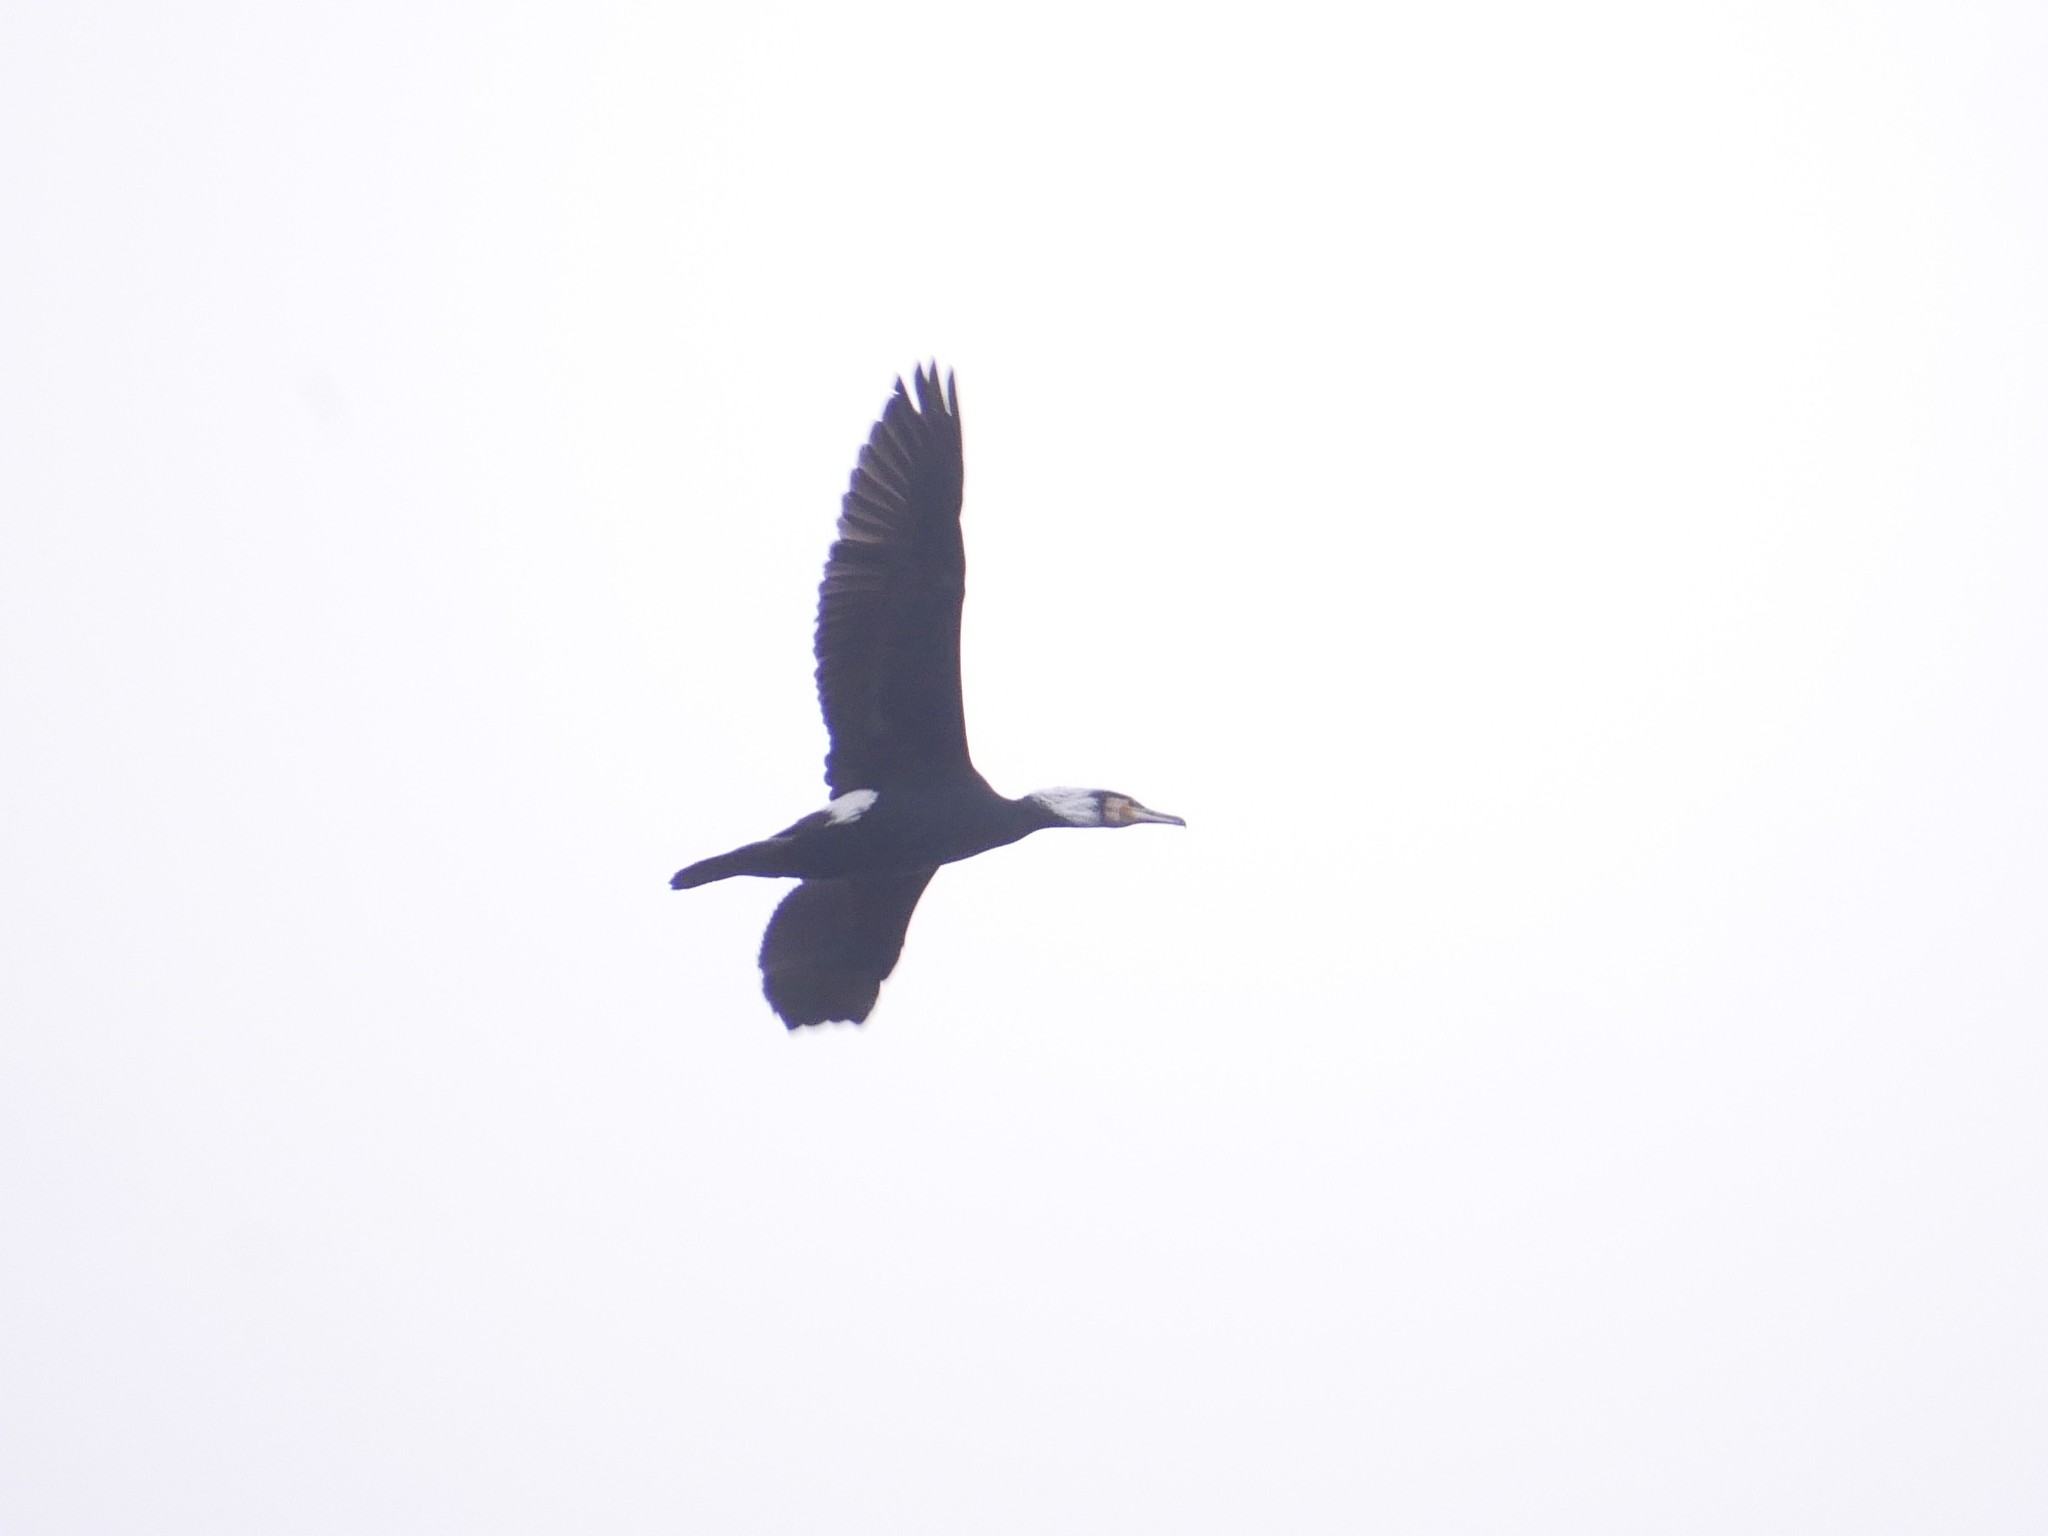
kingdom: Animalia
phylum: Chordata
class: Aves
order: Suliformes
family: Phalacrocoracidae
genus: Phalacrocorax
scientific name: Phalacrocorax carbo
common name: Great cormorant
